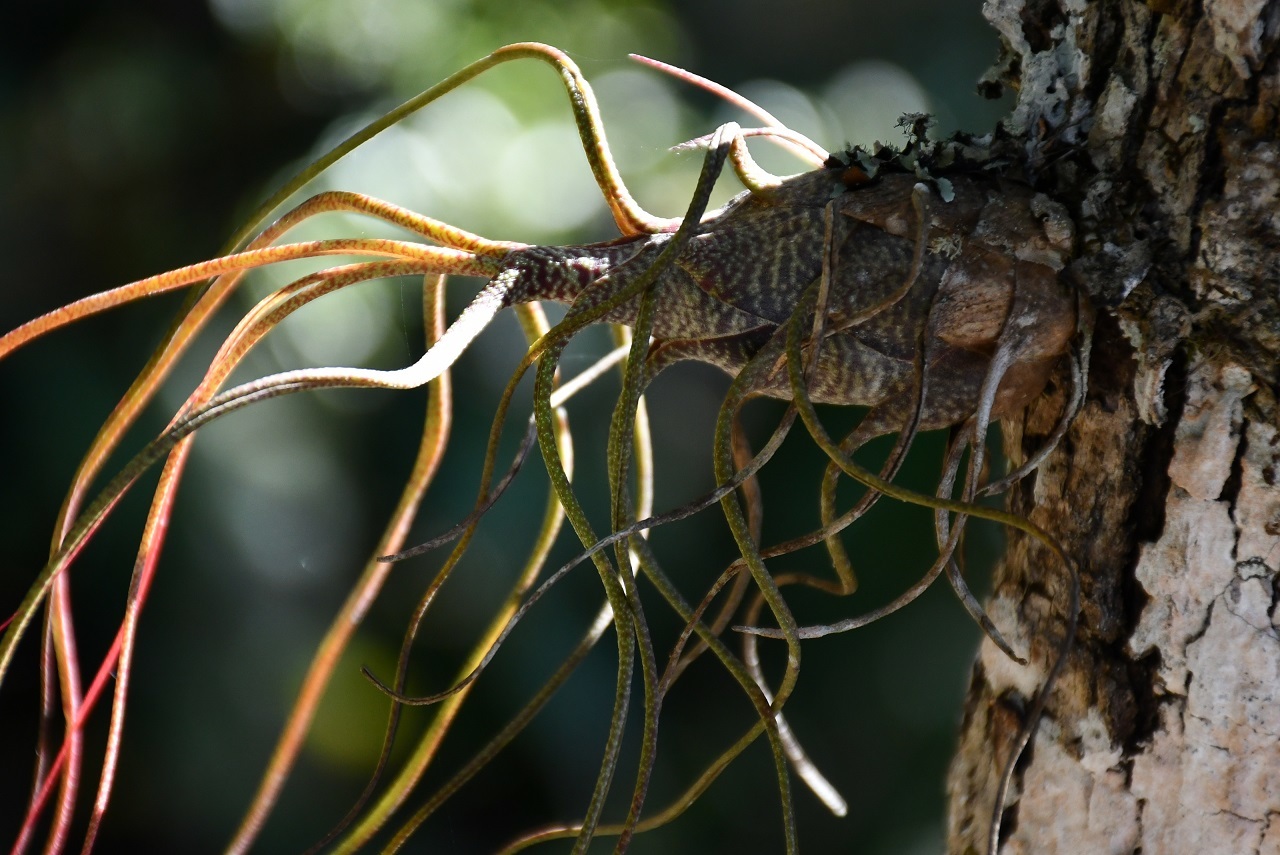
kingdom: Plantae
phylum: Tracheophyta
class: Liliopsida
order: Poales
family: Bromeliaceae
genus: Tillandsia
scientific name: Tillandsia butzii
